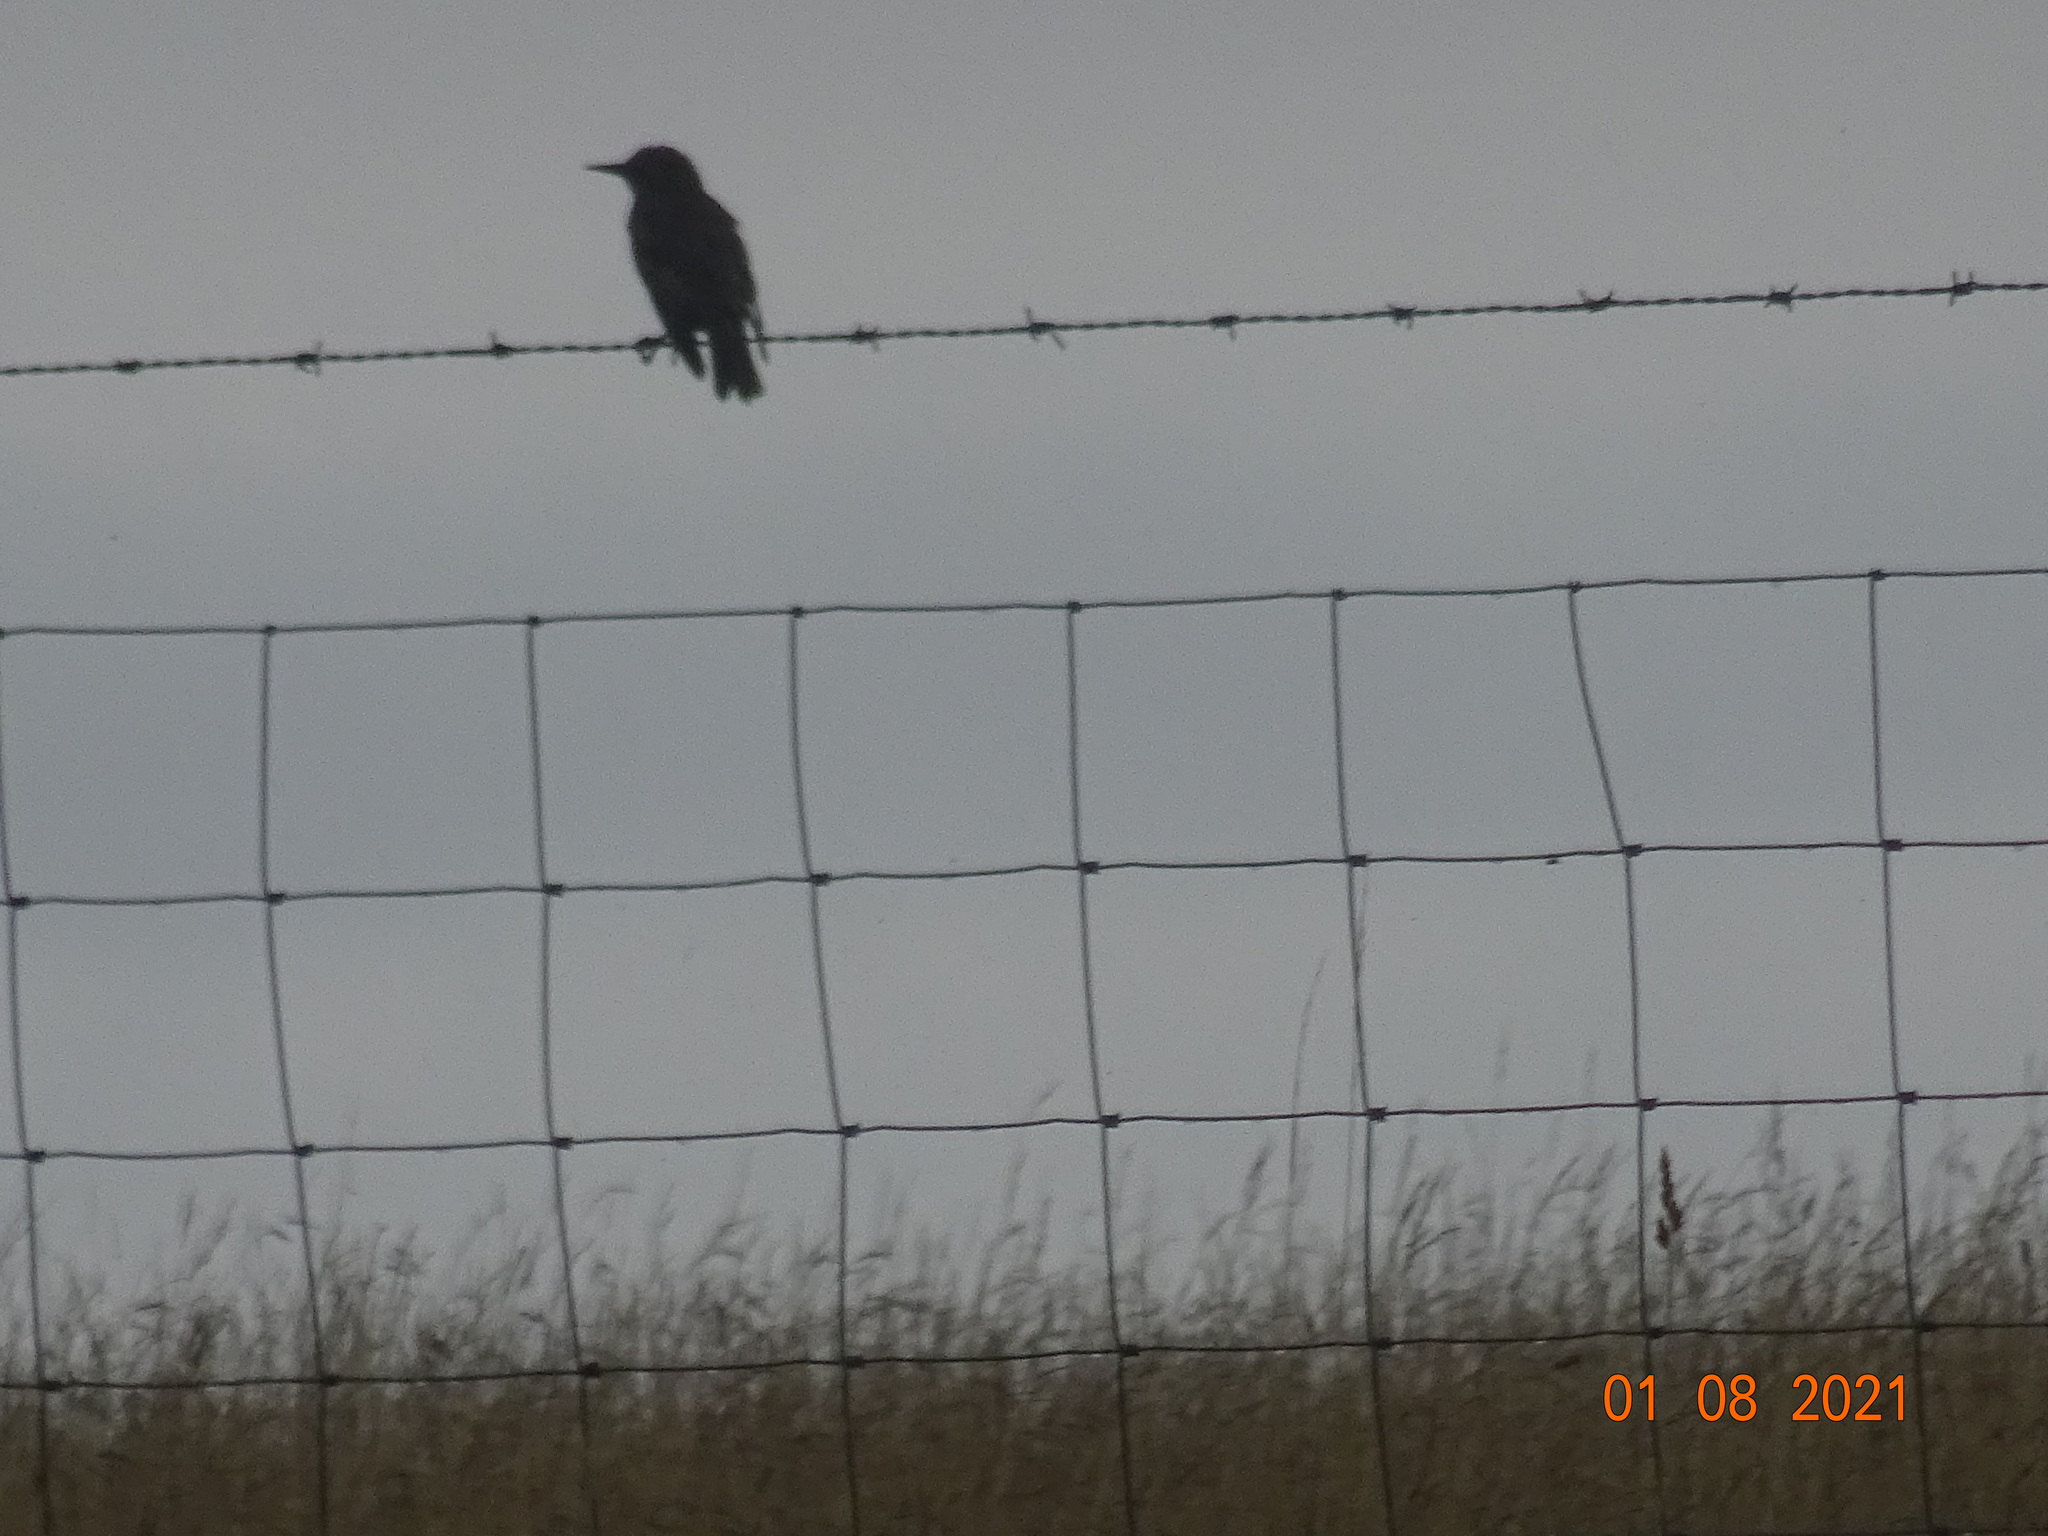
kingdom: Animalia
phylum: Chordata
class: Aves
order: Passeriformes
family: Sturnidae
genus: Sturnus
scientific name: Sturnus vulgaris
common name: Common starling
